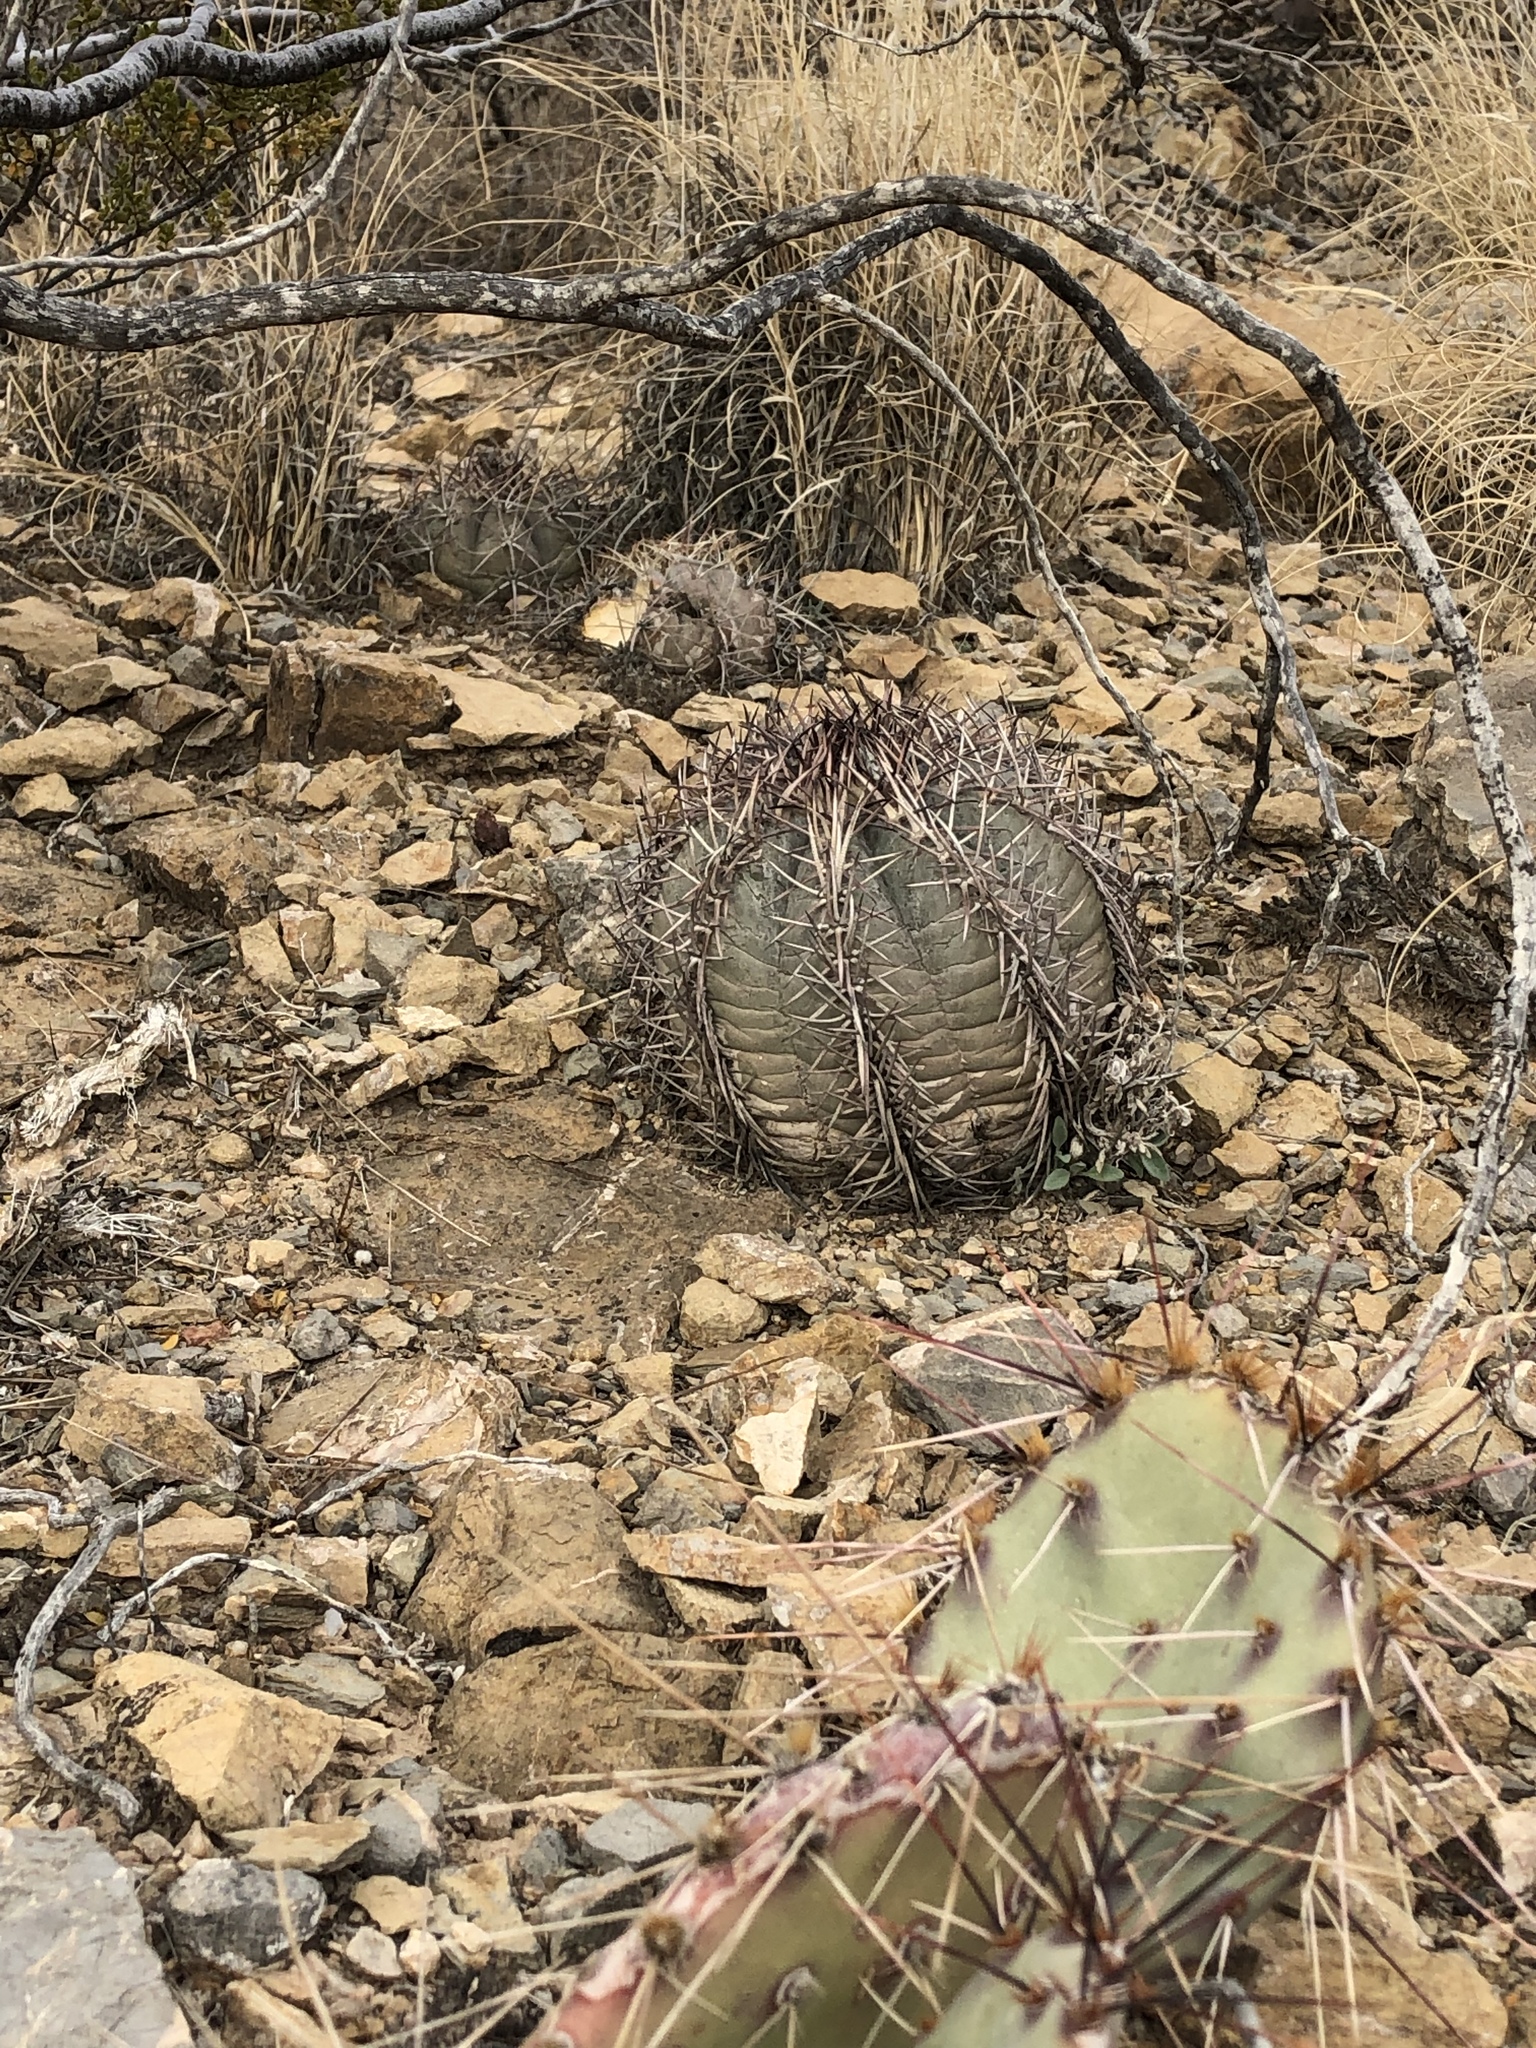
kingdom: Plantae
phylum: Tracheophyta
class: Magnoliopsida
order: Caryophyllales
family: Cactaceae
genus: Echinocactus
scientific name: Echinocactus horizonthalonius
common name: Devilshead
